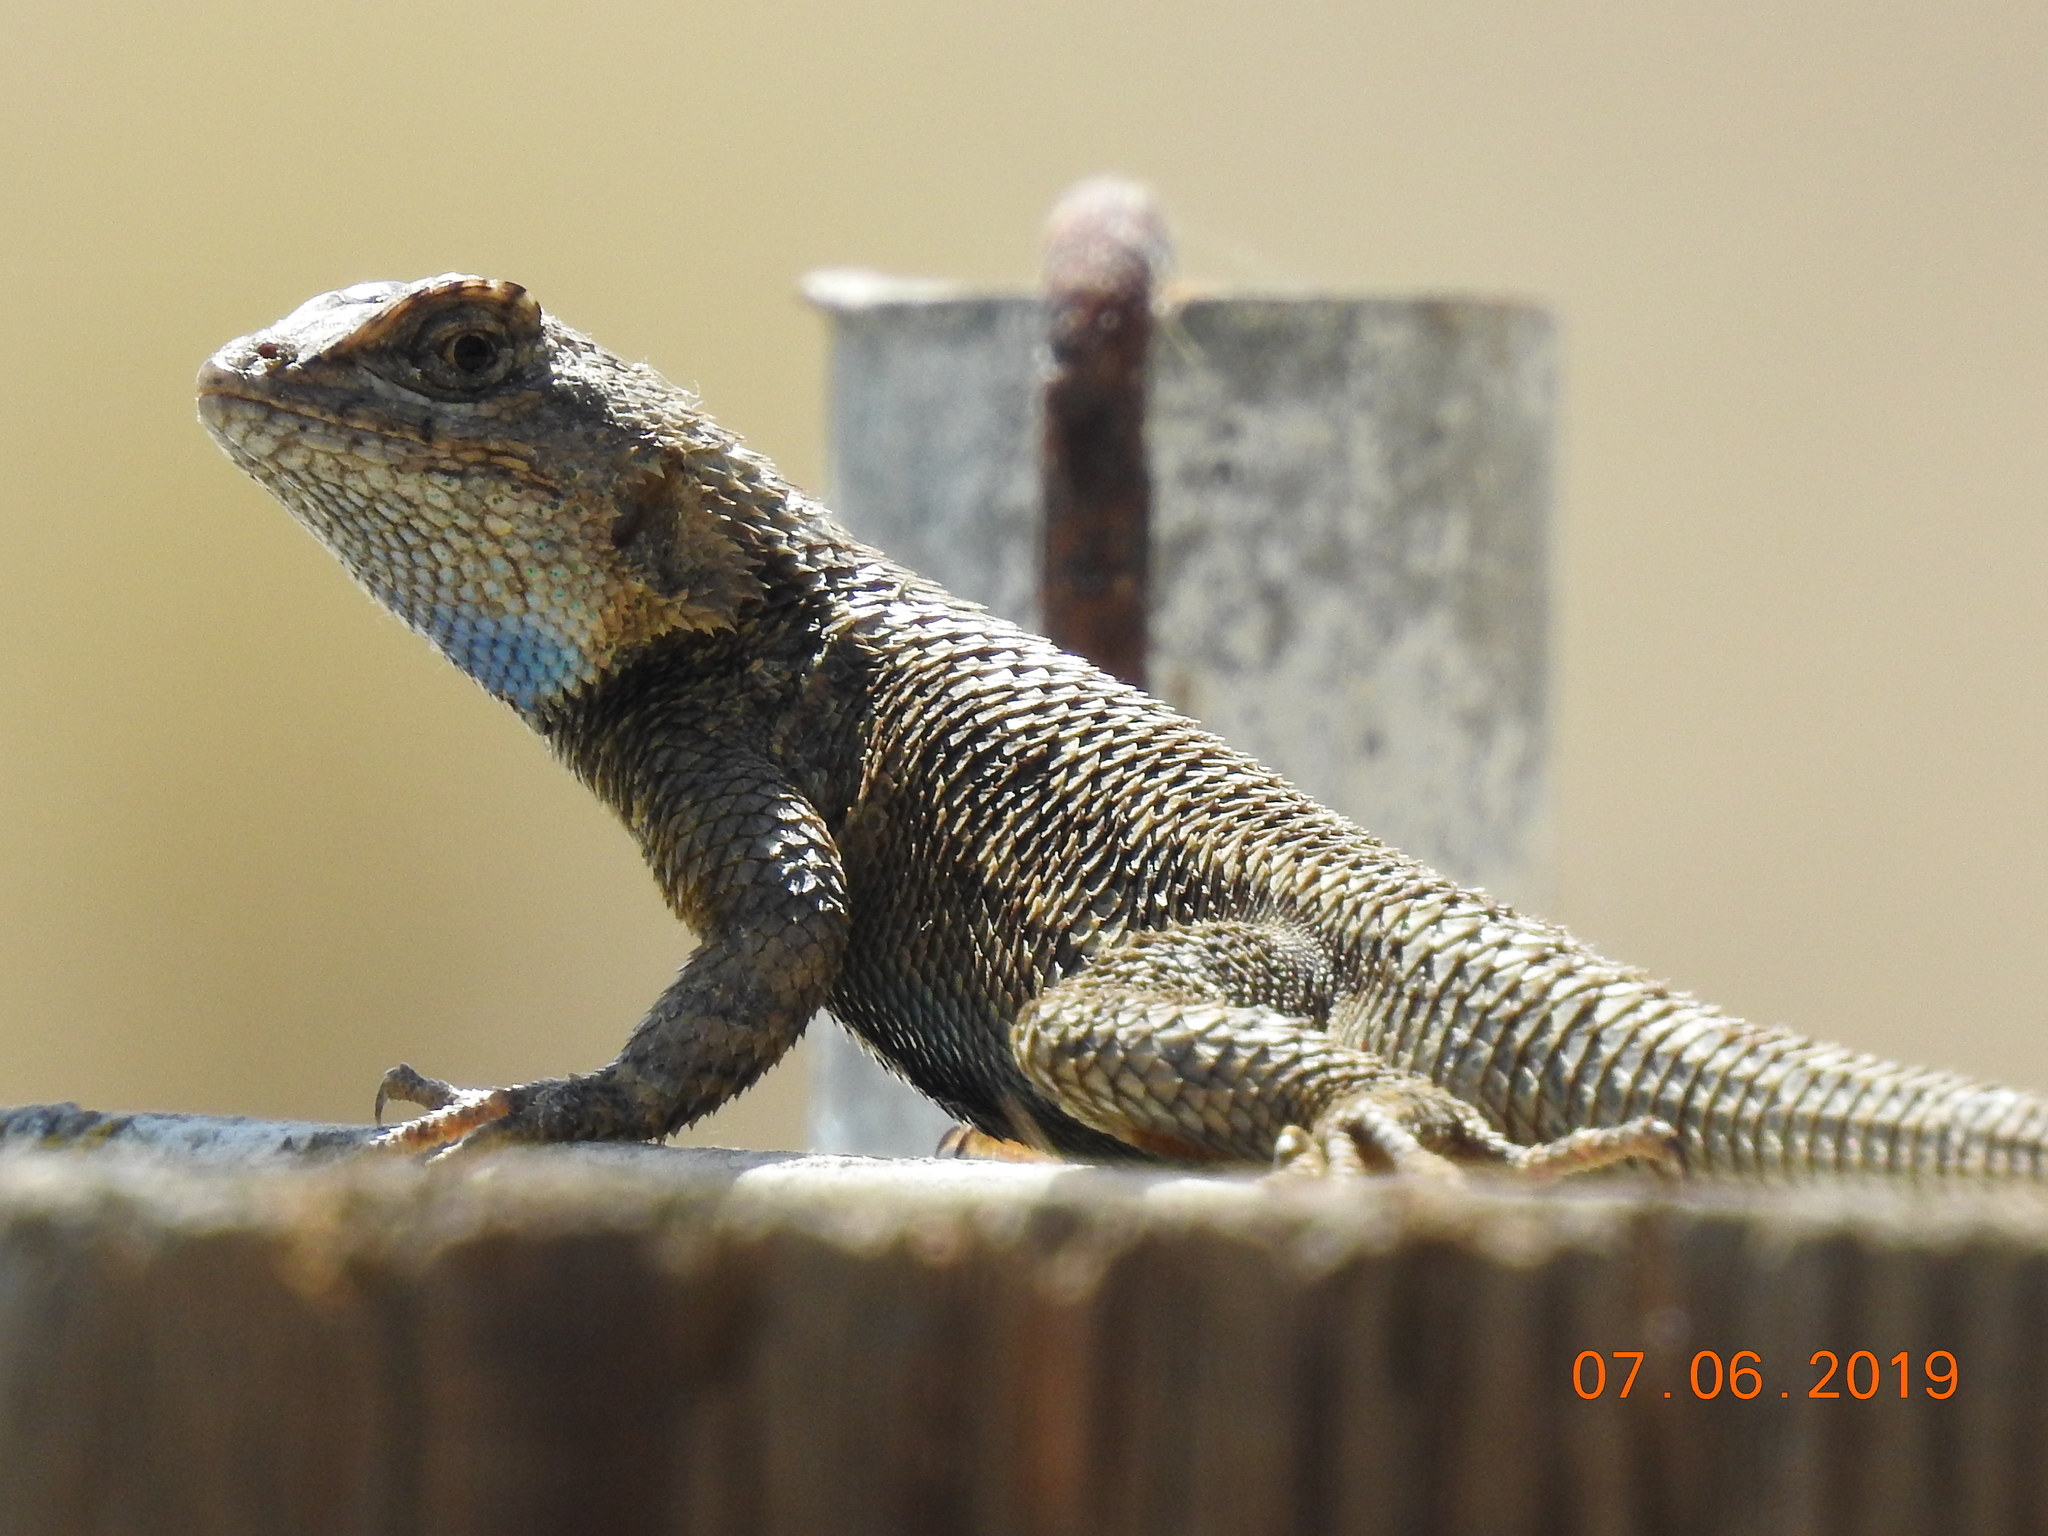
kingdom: Animalia
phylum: Chordata
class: Squamata
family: Phrynosomatidae
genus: Sceloporus
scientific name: Sceloporus occidentalis
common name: Western fence lizard
